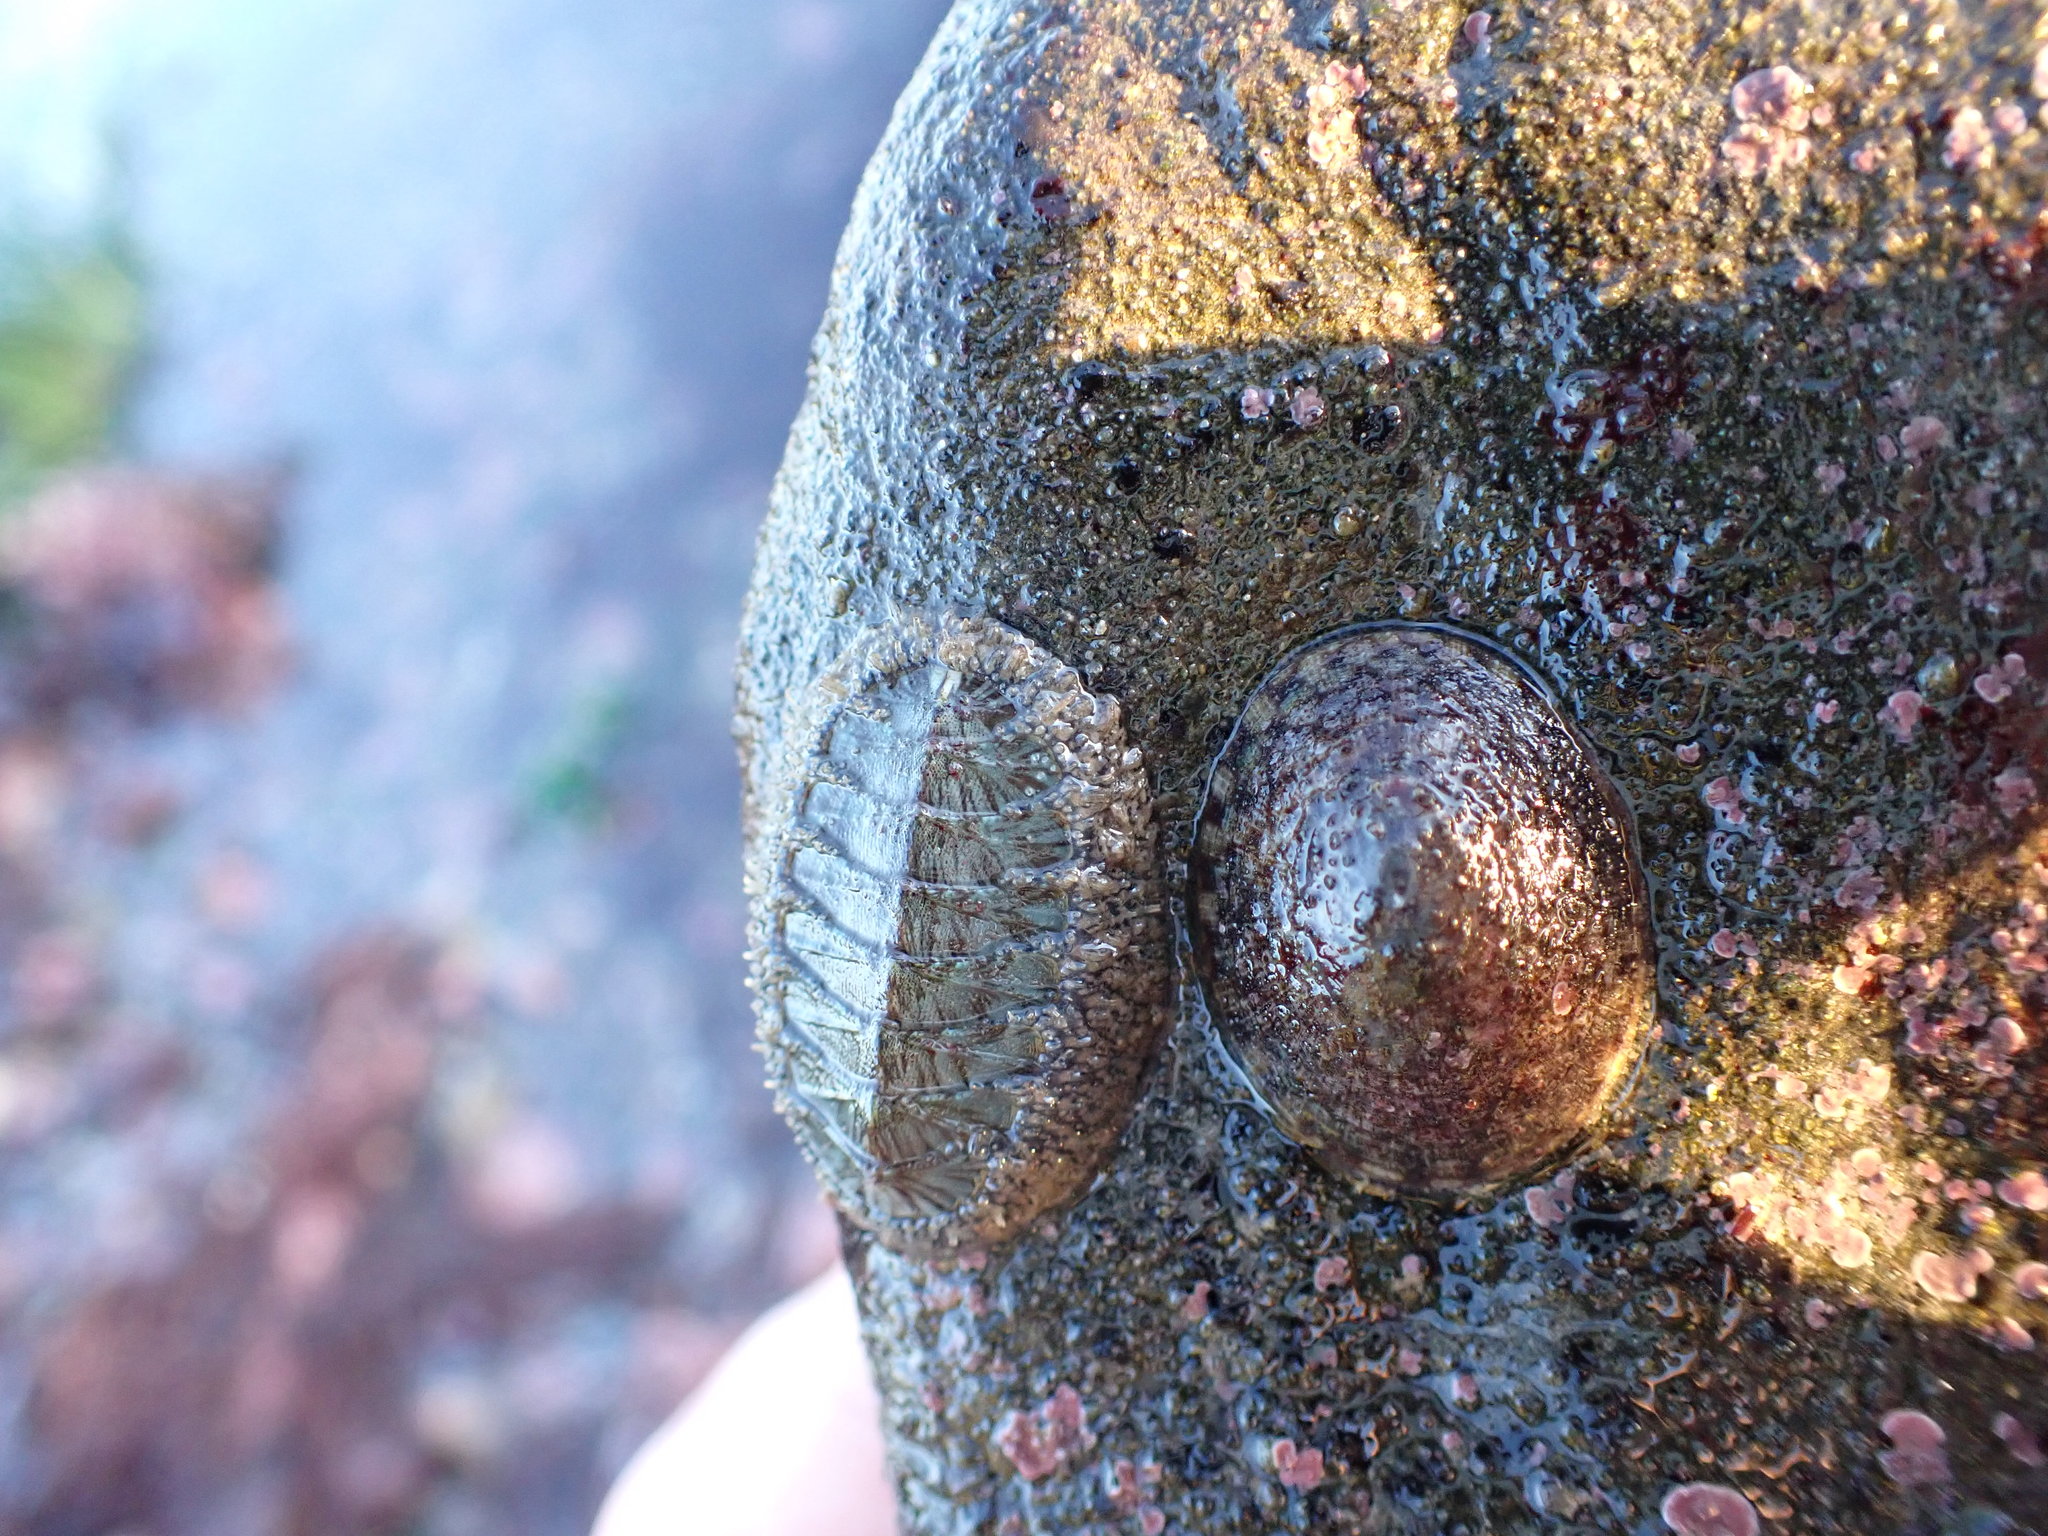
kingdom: Animalia
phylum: Mollusca
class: Polyplacophora
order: Chitonida
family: Mopaliidae
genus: Mopalia
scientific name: Mopalia lignosa
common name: Woody chiton
